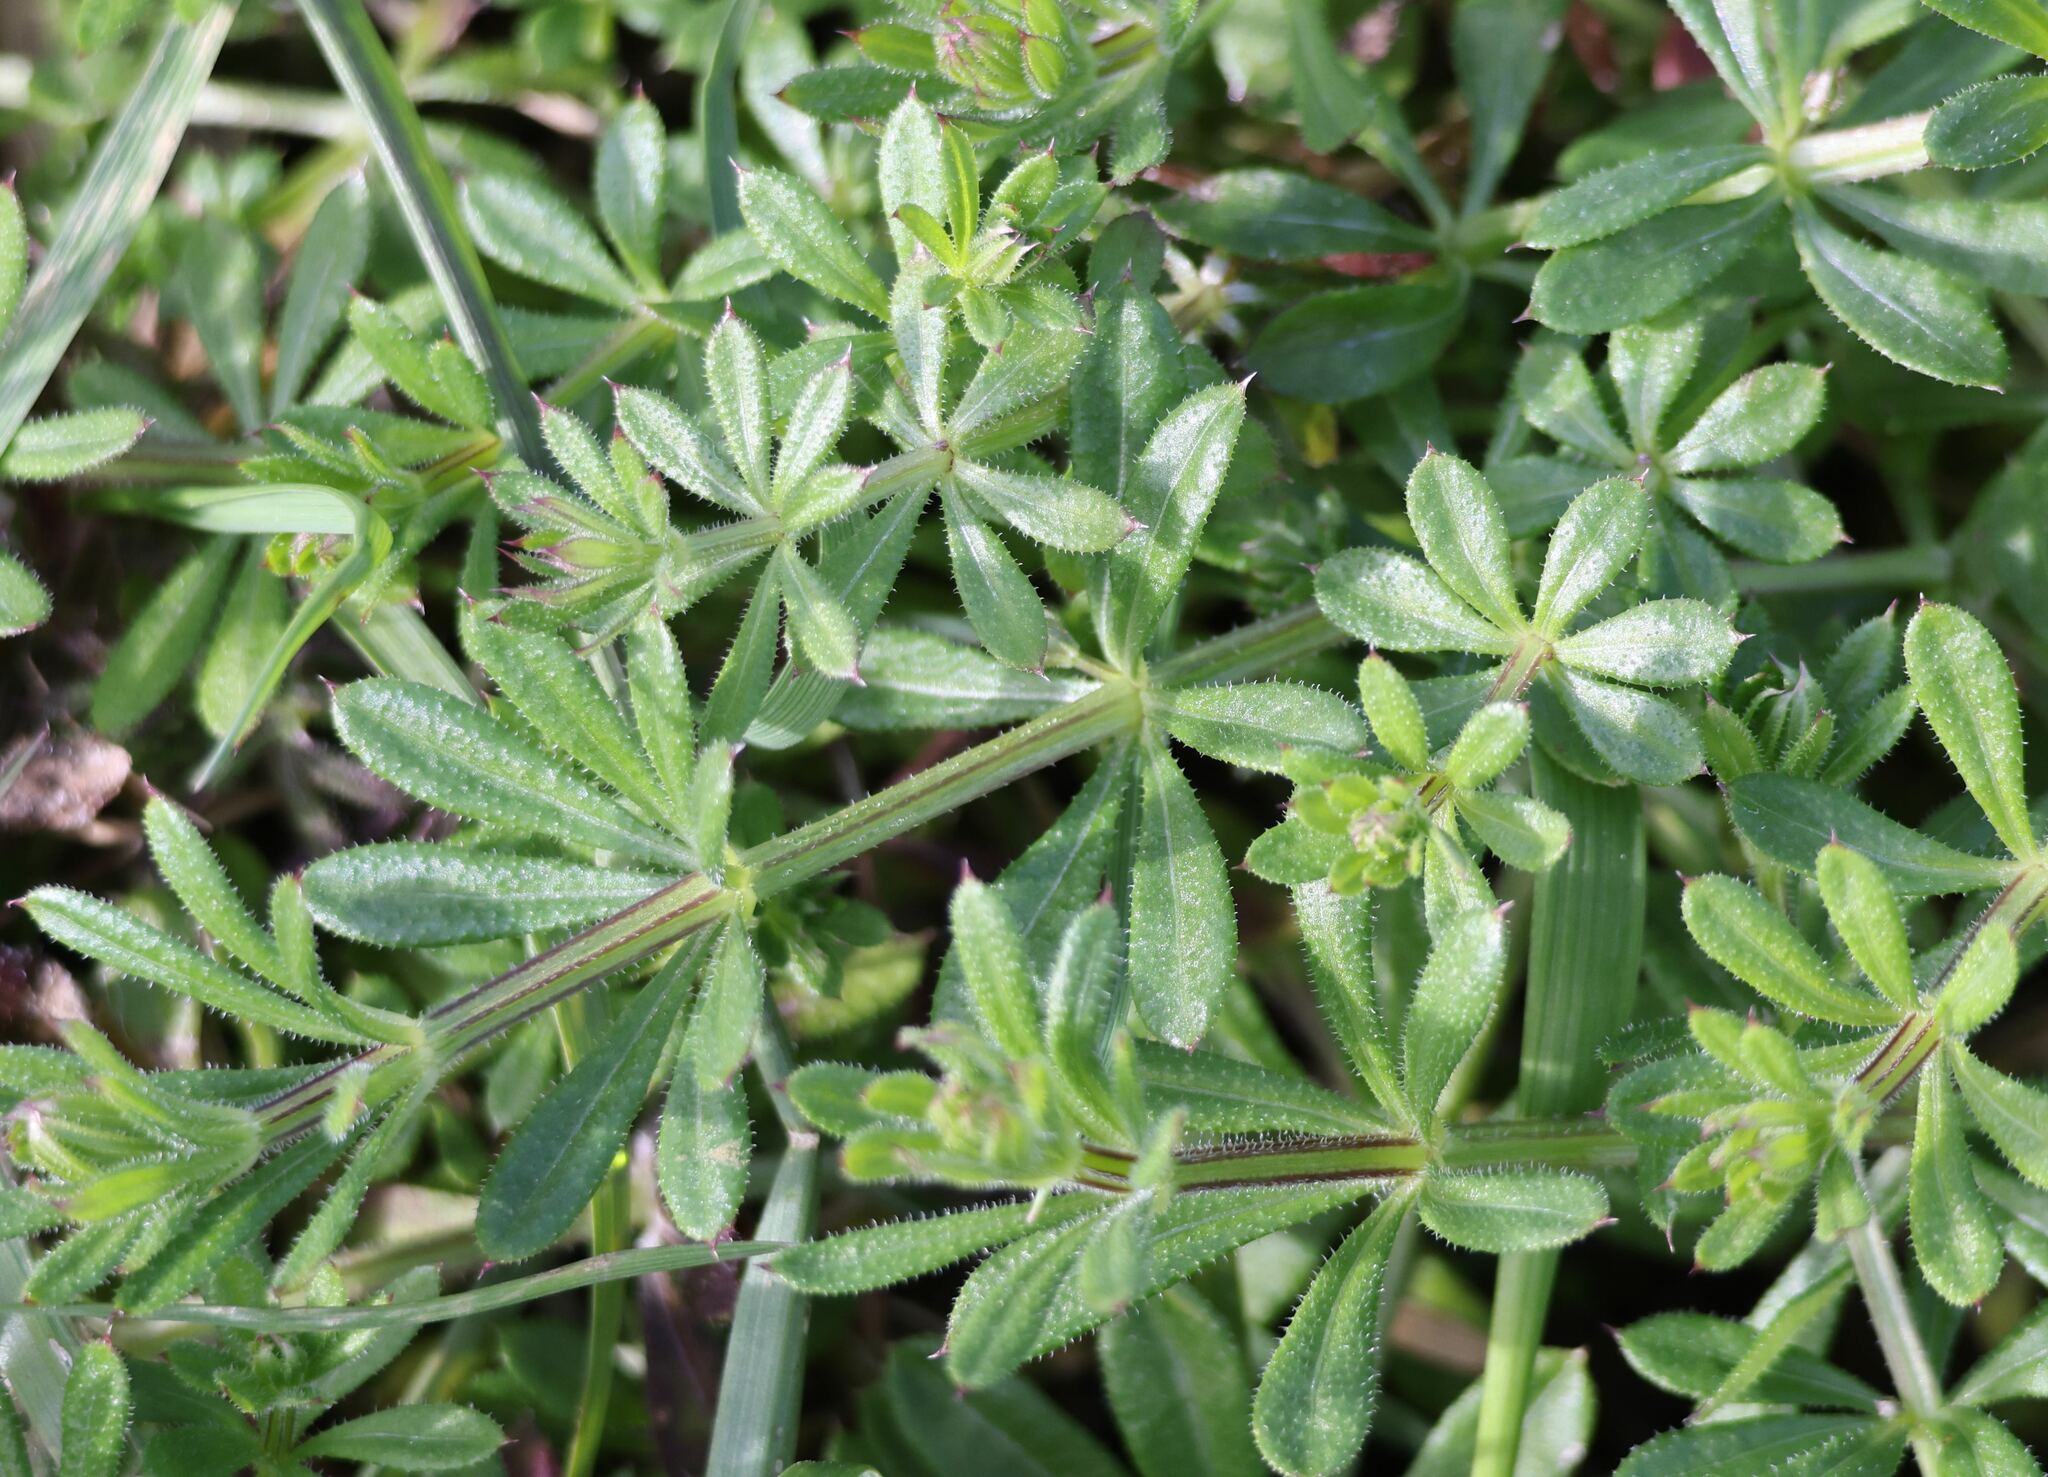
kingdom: Plantae
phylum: Tracheophyta
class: Magnoliopsida
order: Gentianales
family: Rubiaceae
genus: Galium
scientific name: Galium aparine
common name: Cleavers
